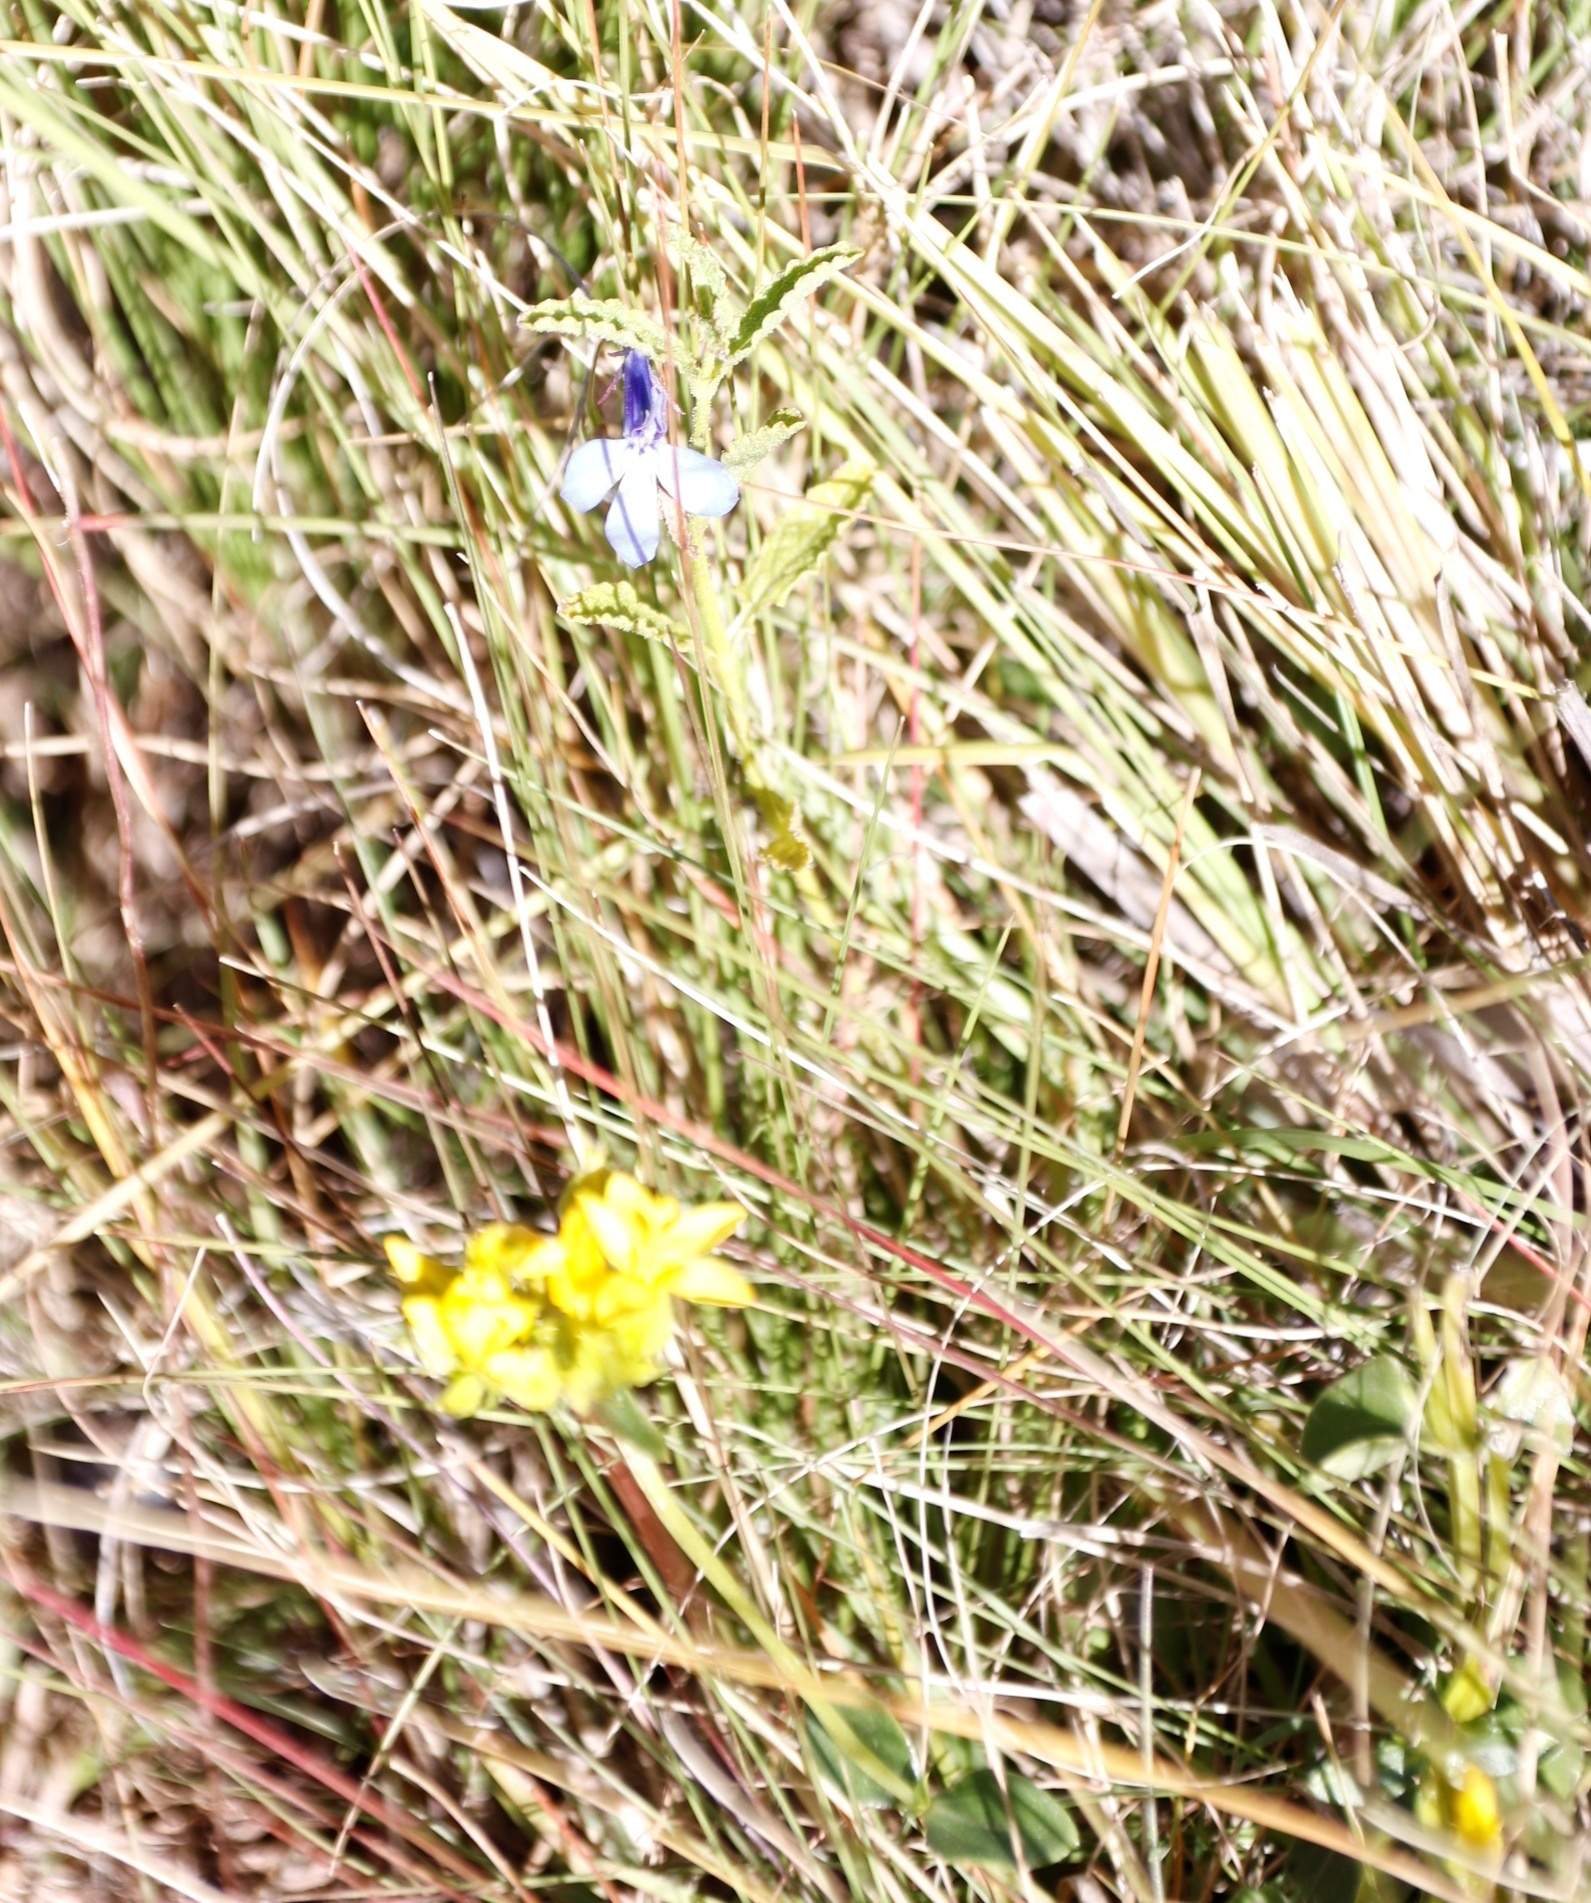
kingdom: Plantae
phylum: Tracheophyta
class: Magnoliopsida
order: Asterales
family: Campanulaceae
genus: Lobelia
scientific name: Lobelia flaccida
